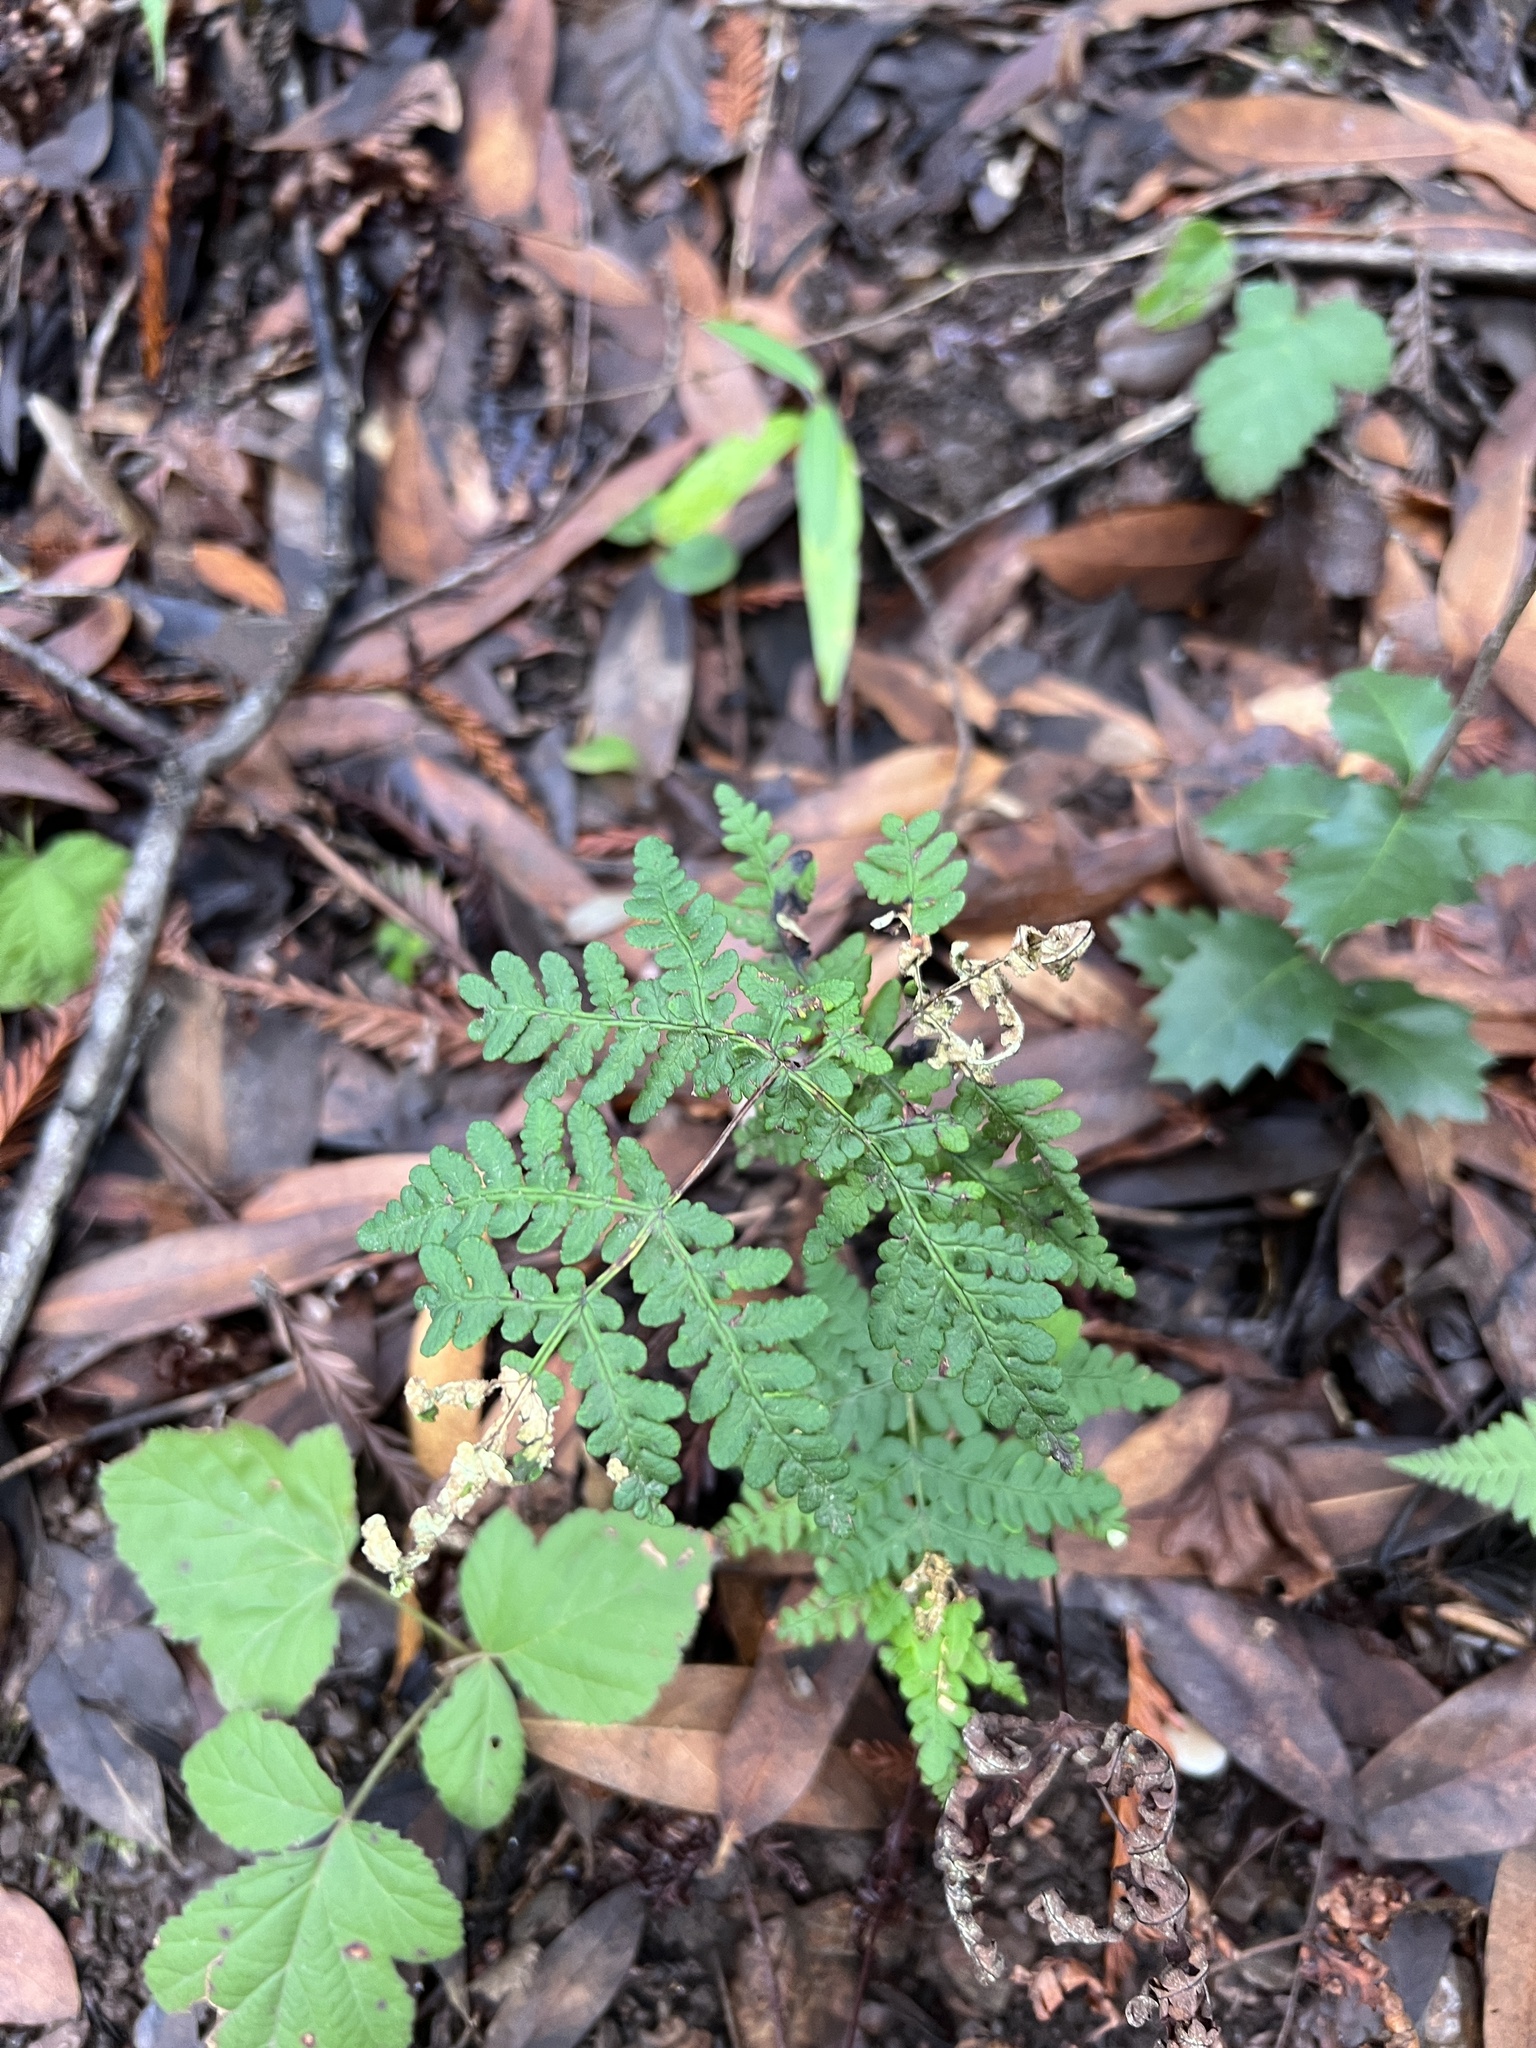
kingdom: Plantae
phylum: Tracheophyta
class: Polypodiopsida
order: Polypodiales
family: Pteridaceae
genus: Pentagramma
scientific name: Pentagramma triangularis
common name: Gold fern
